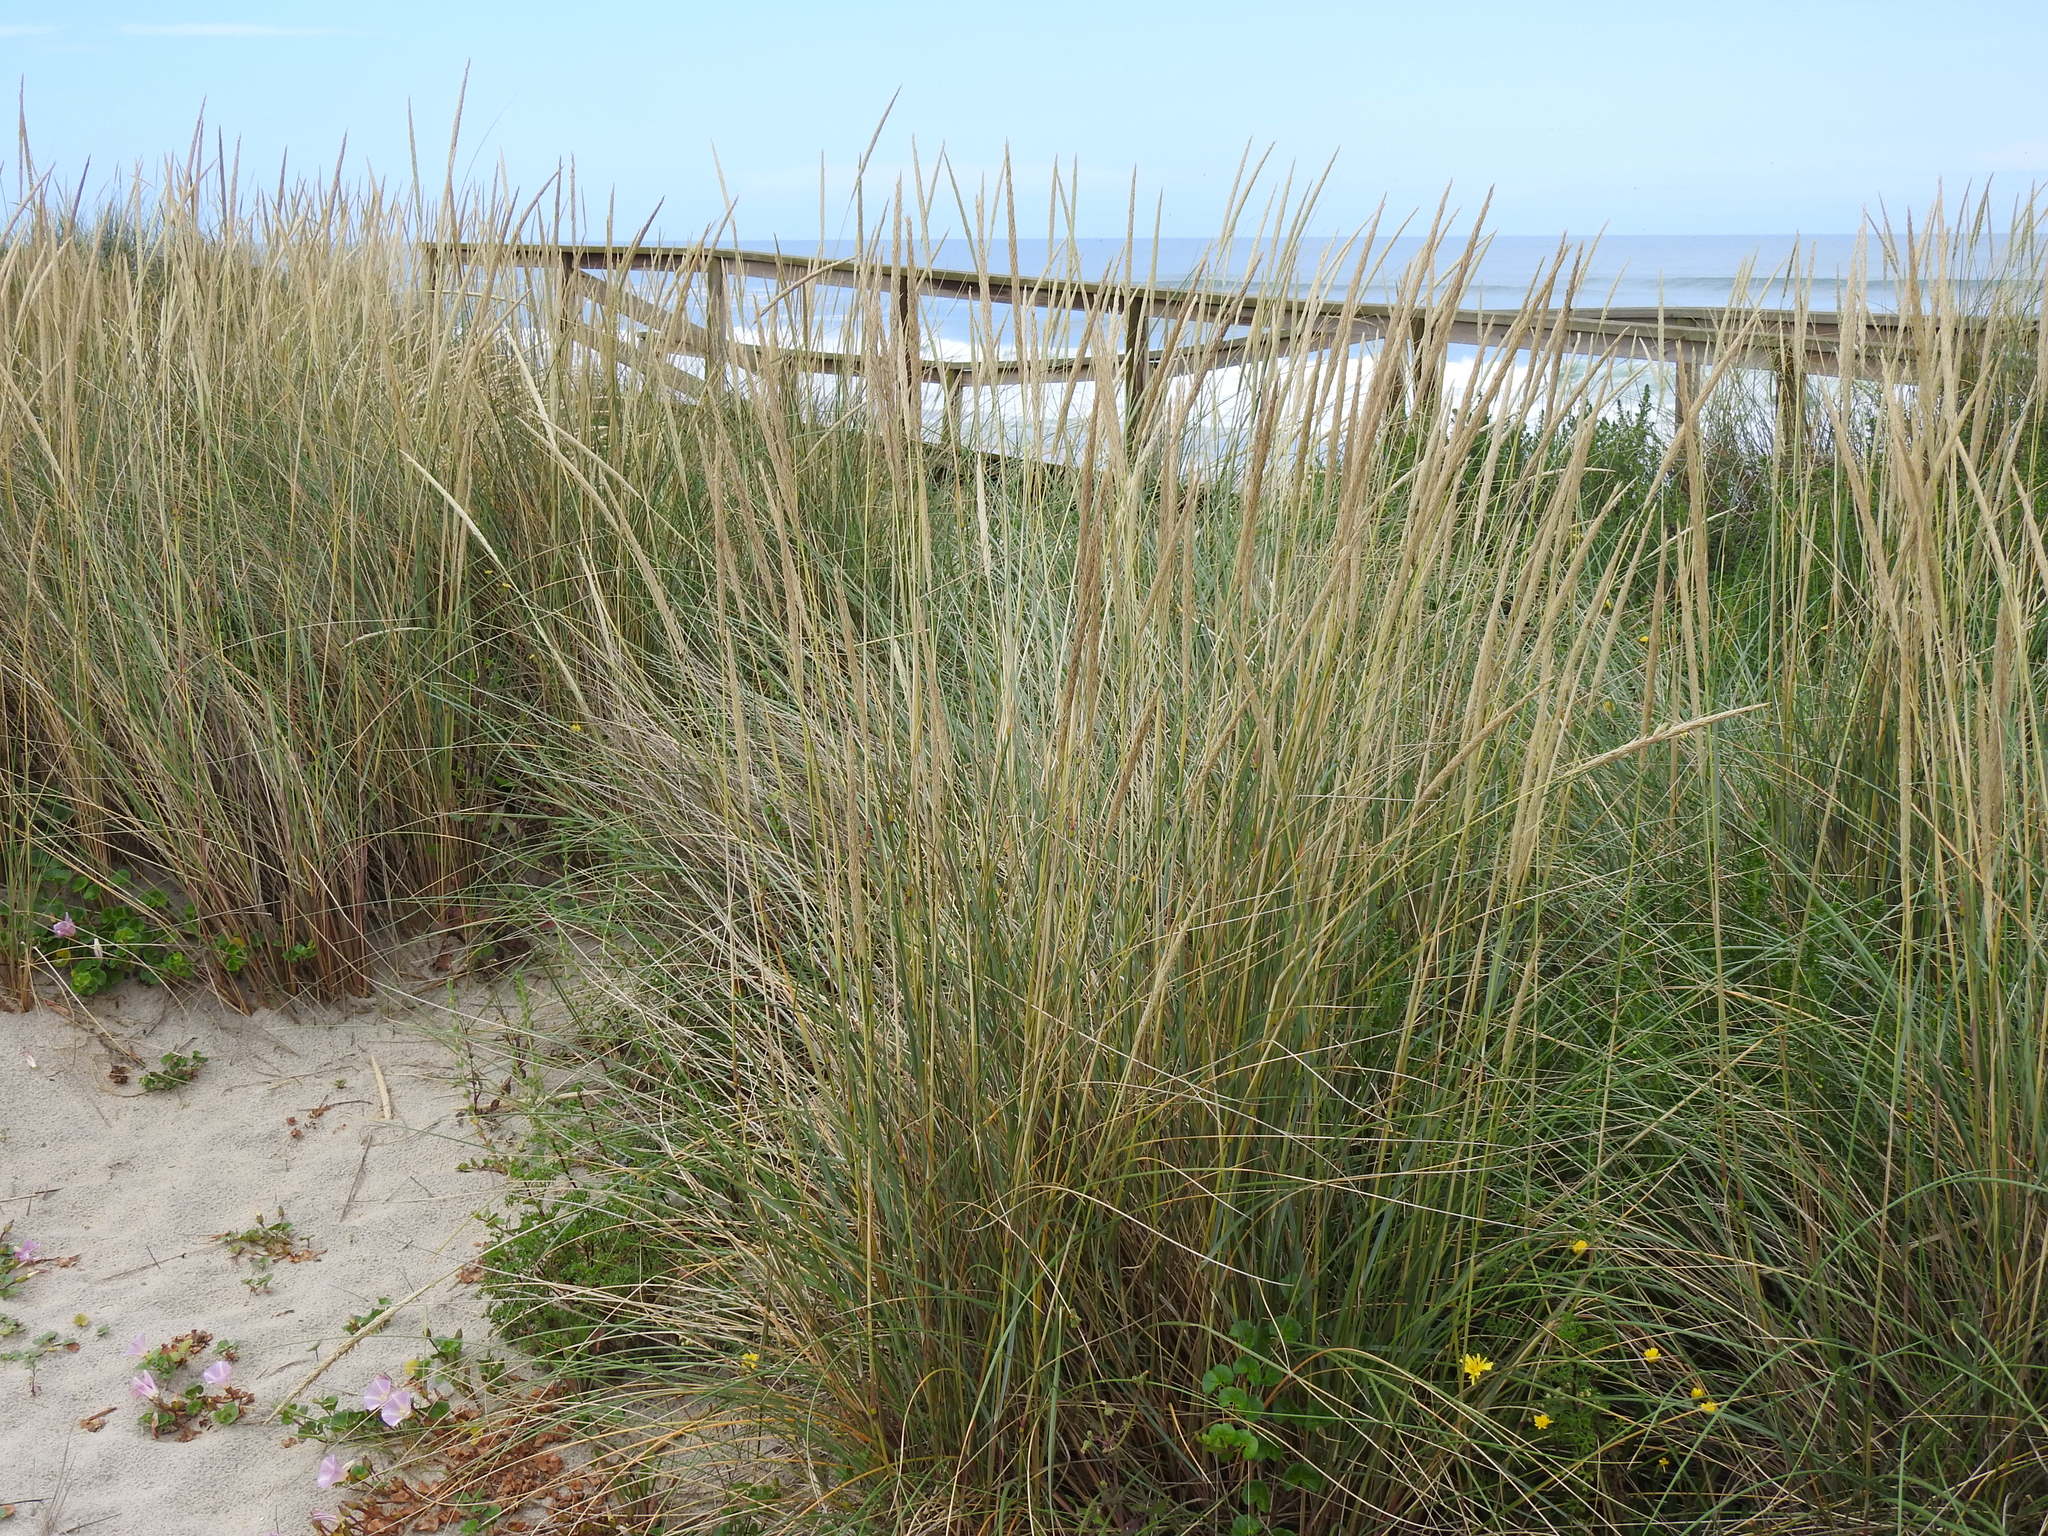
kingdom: Plantae
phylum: Tracheophyta
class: Liliopsida
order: Poales
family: Poaceae
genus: Calamagrostis
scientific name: Calamagrostis arenaria
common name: European beachgrass
